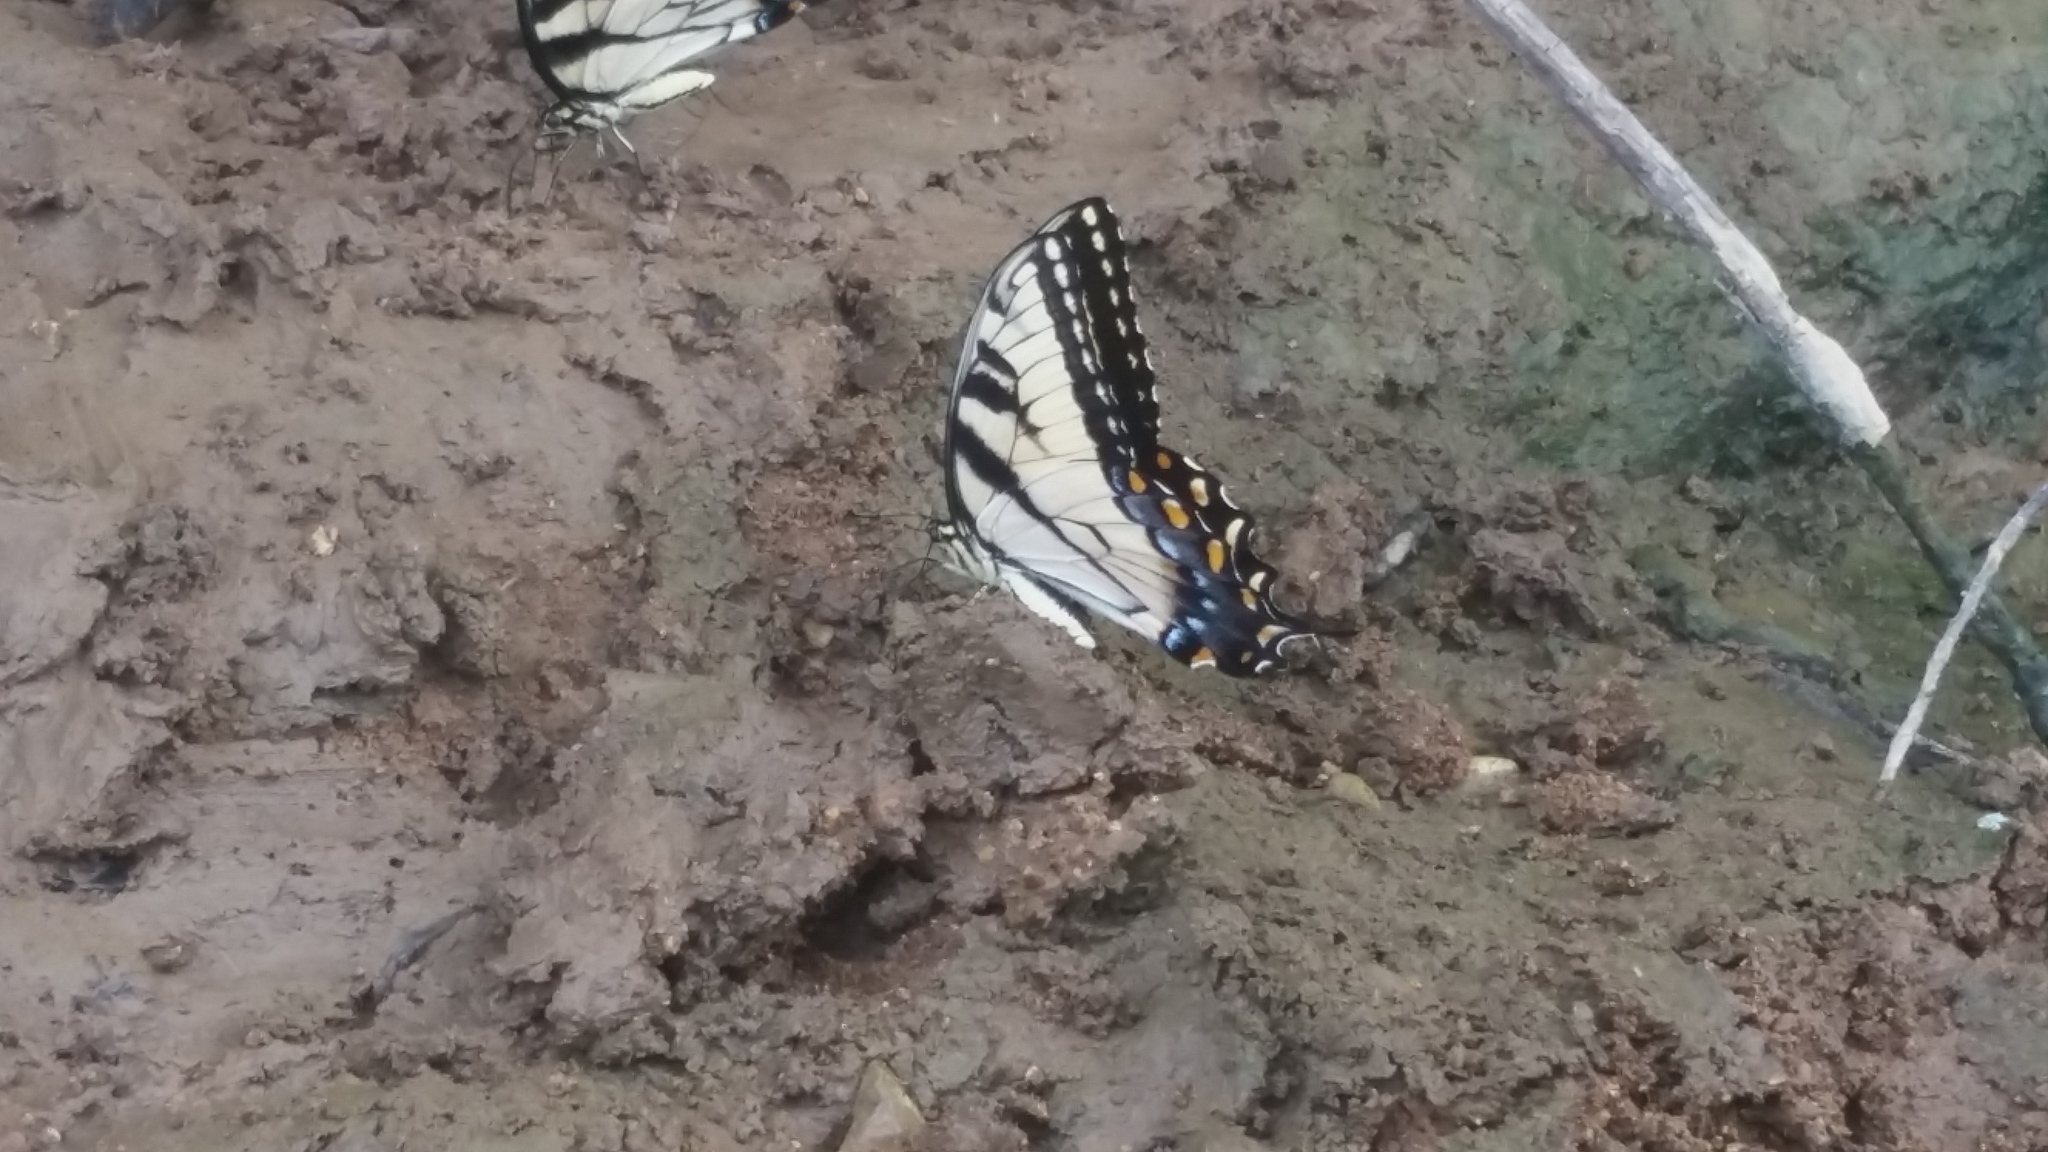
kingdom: Animalia
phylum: Arthropoda
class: Insecta
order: Lepidoptera
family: Papilionidae
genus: Papilio
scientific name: Papilio glaucus
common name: Tiger swallowtail
